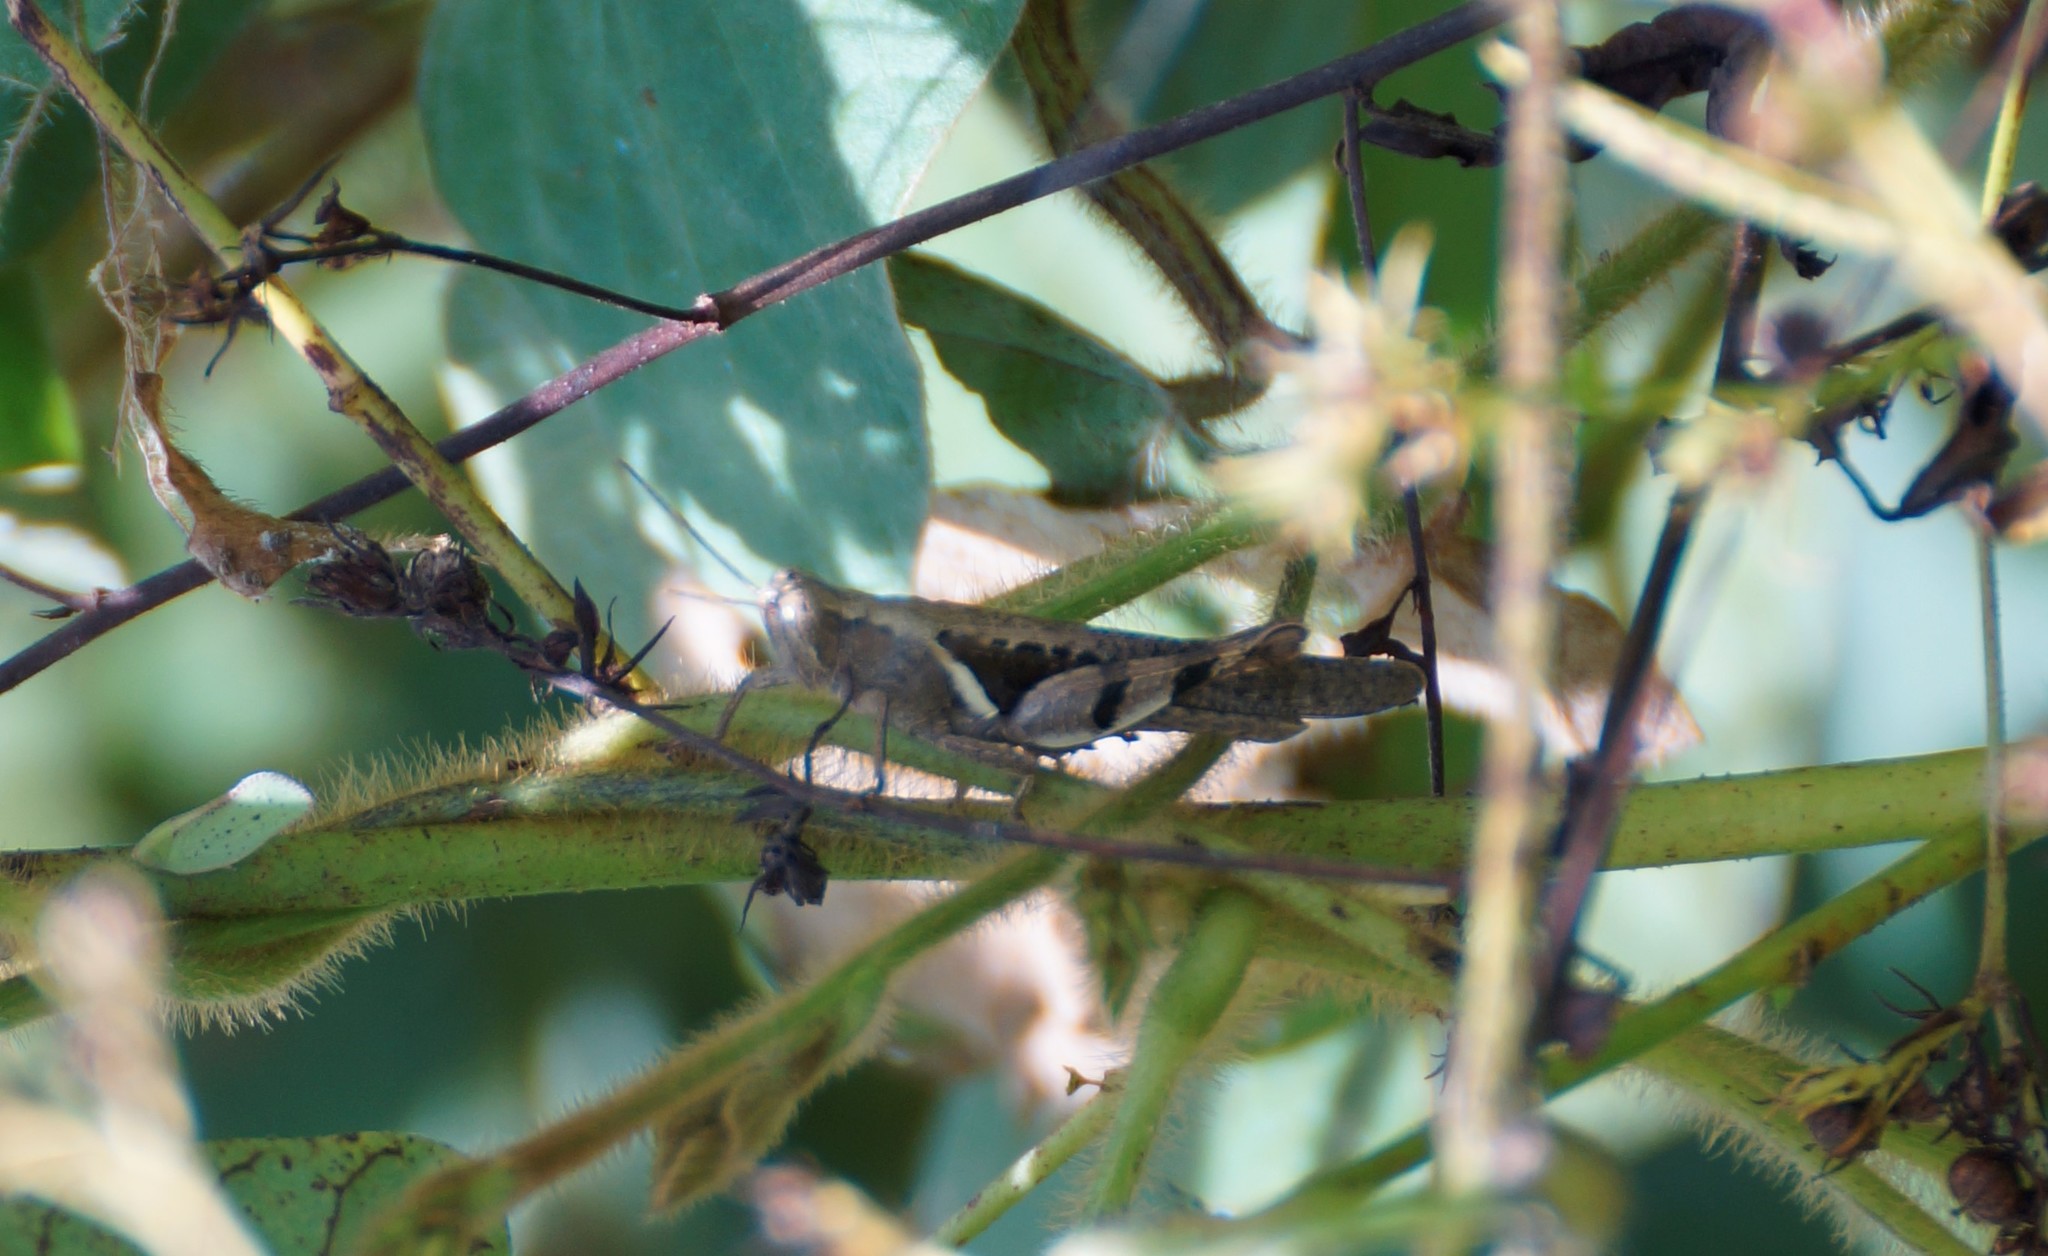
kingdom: Animalia
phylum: Arthropoda
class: Insecta
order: Orthoptera
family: Acrididae
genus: Stenocatantops
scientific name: Stenocatantops angustifrons
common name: Common tropical sharptail
